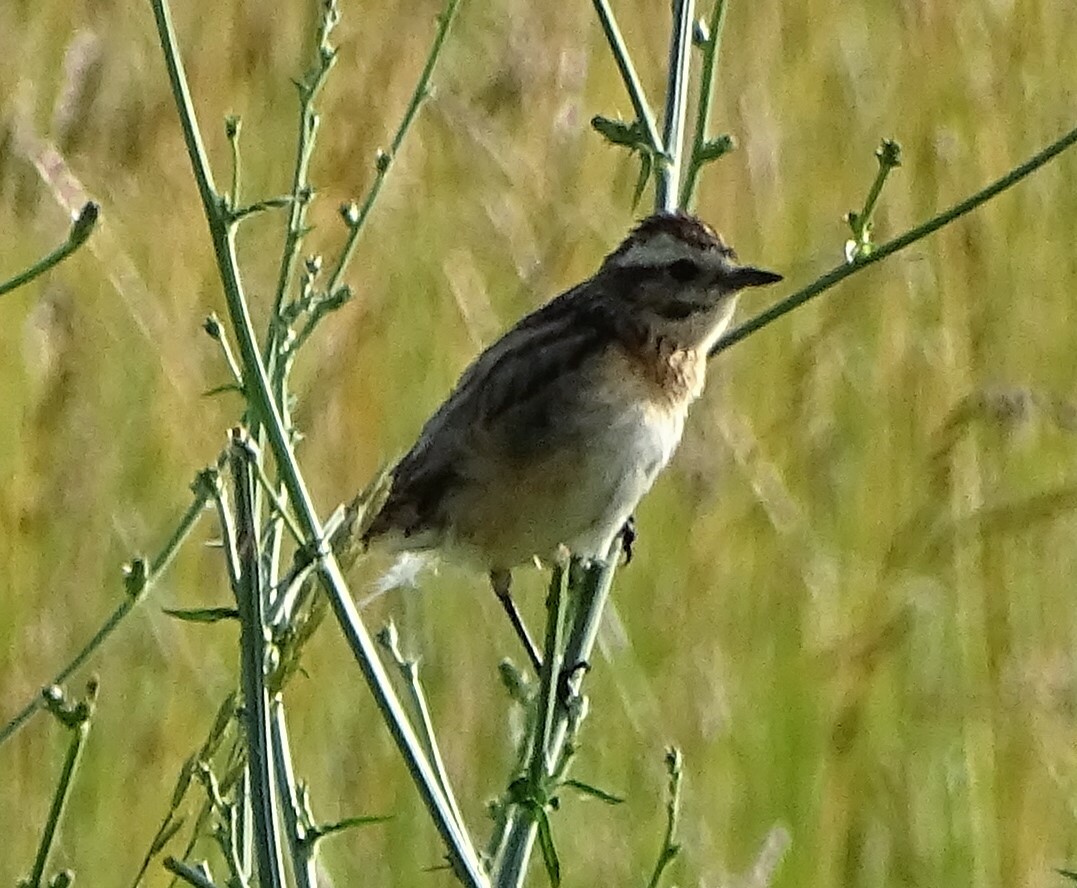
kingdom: Animalia
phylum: Chordata
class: Aves
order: Passeriformes
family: Muscicapidae
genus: Saxicola
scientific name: Saxicola rubetra
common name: Whinchat
